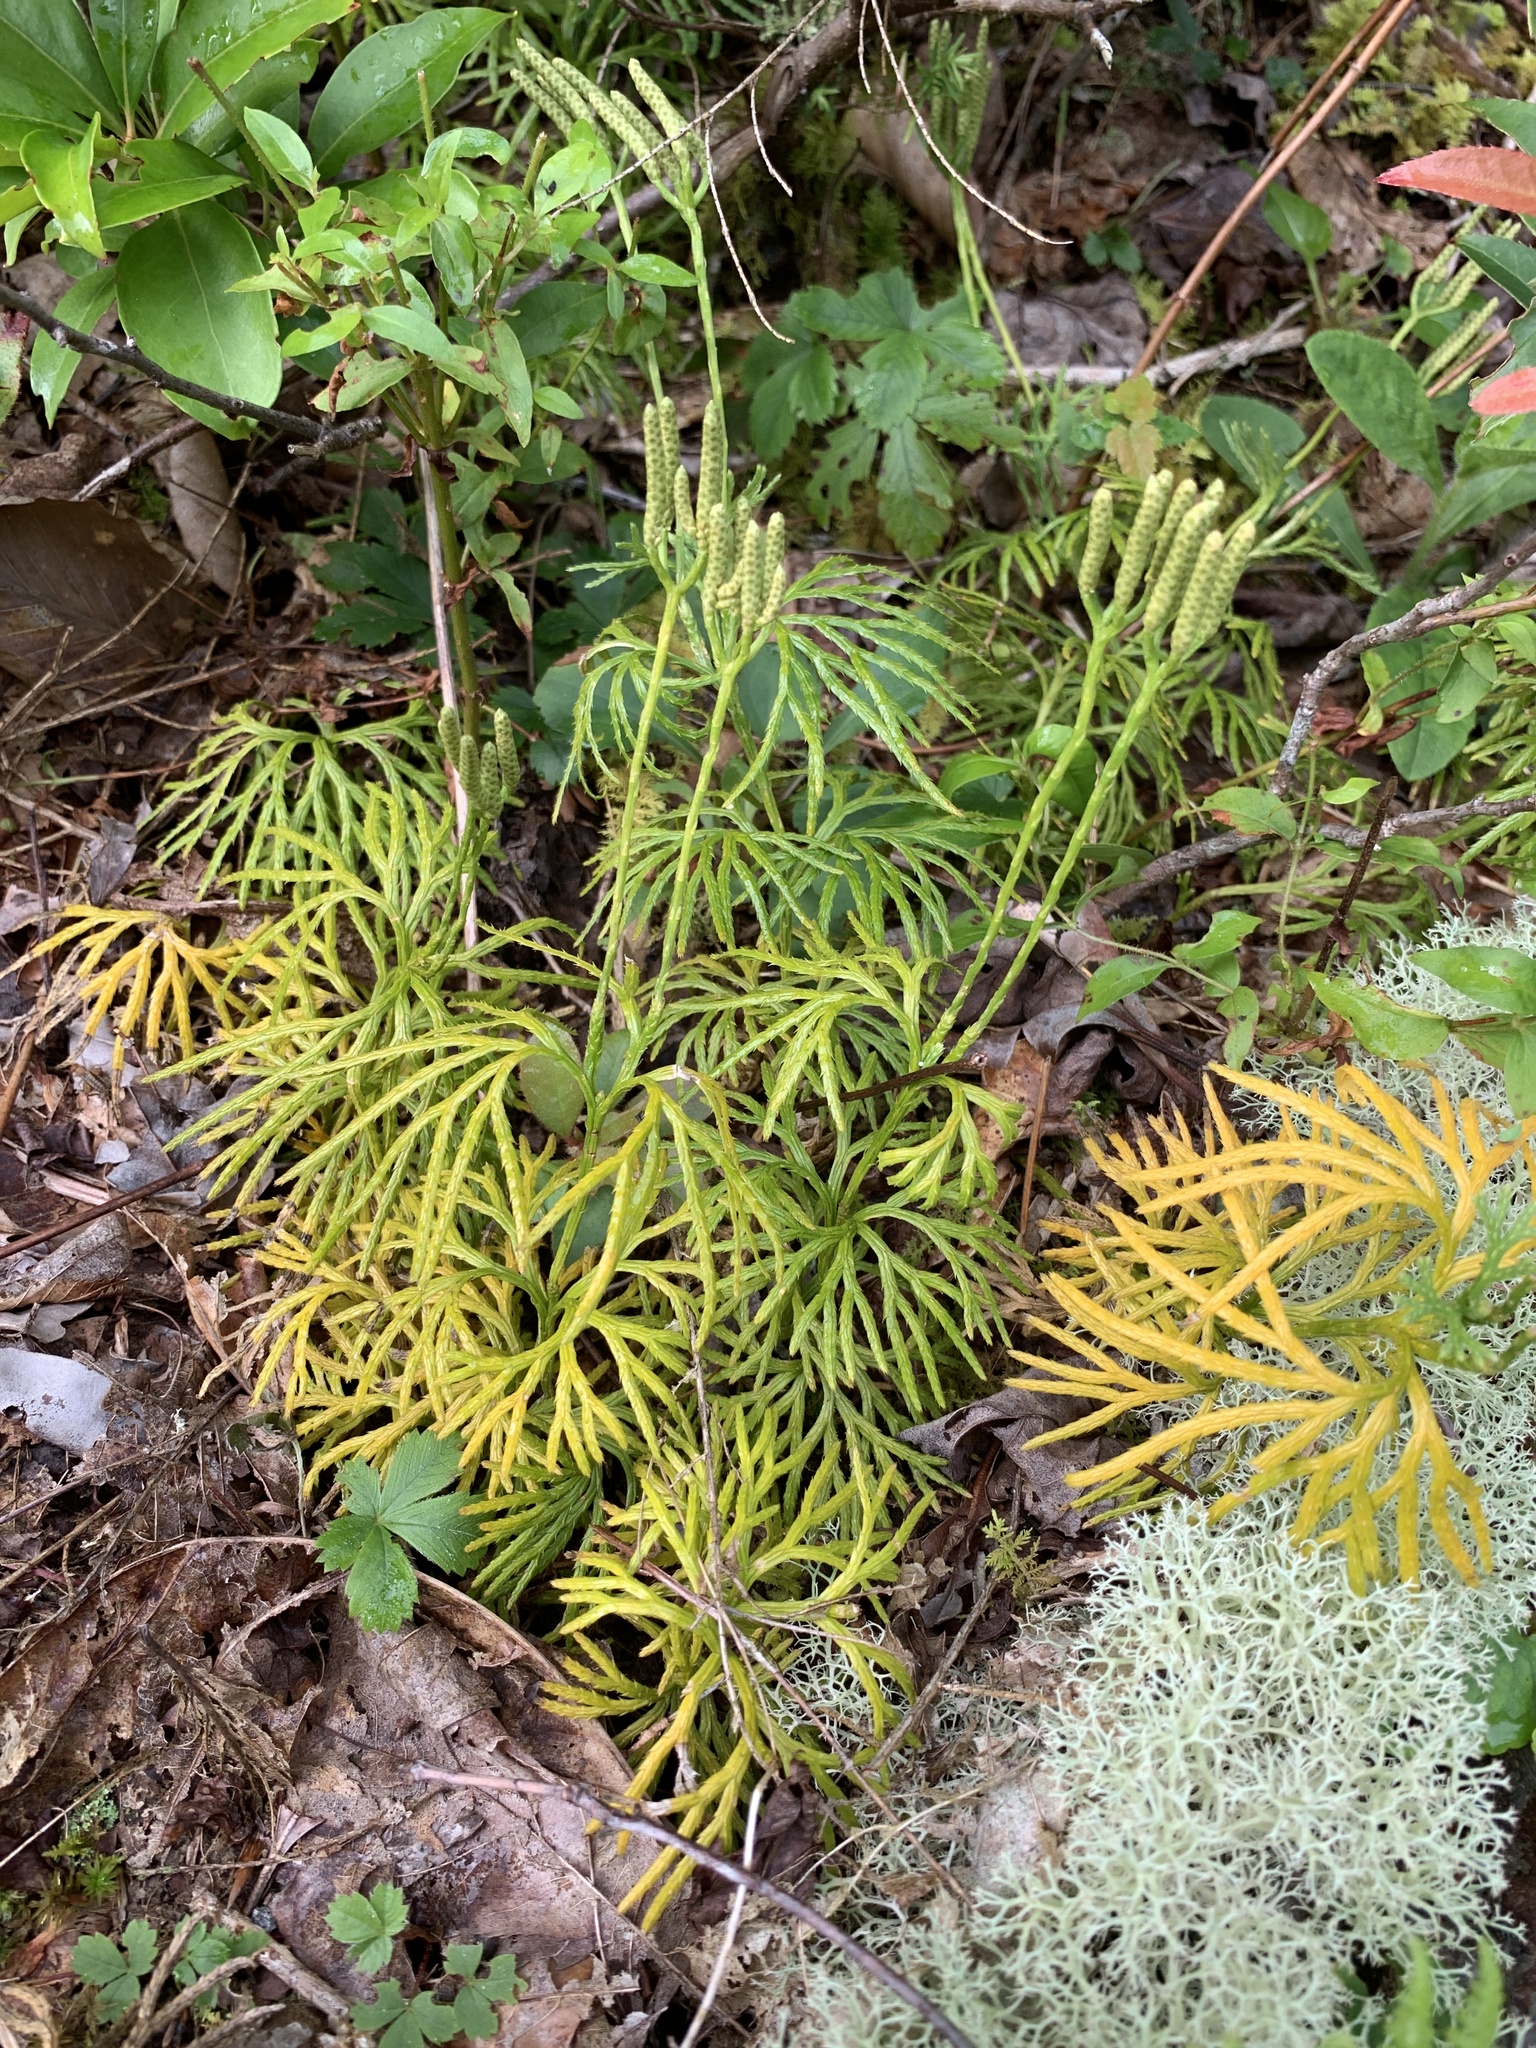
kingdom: Plantae
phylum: Tracheophyta
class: Lycopodiopsida
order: Lycopodiales
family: Lycopodiaceae
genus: Diphasiastrum
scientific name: Diphasiastrum digitatum
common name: Southern running-pine
